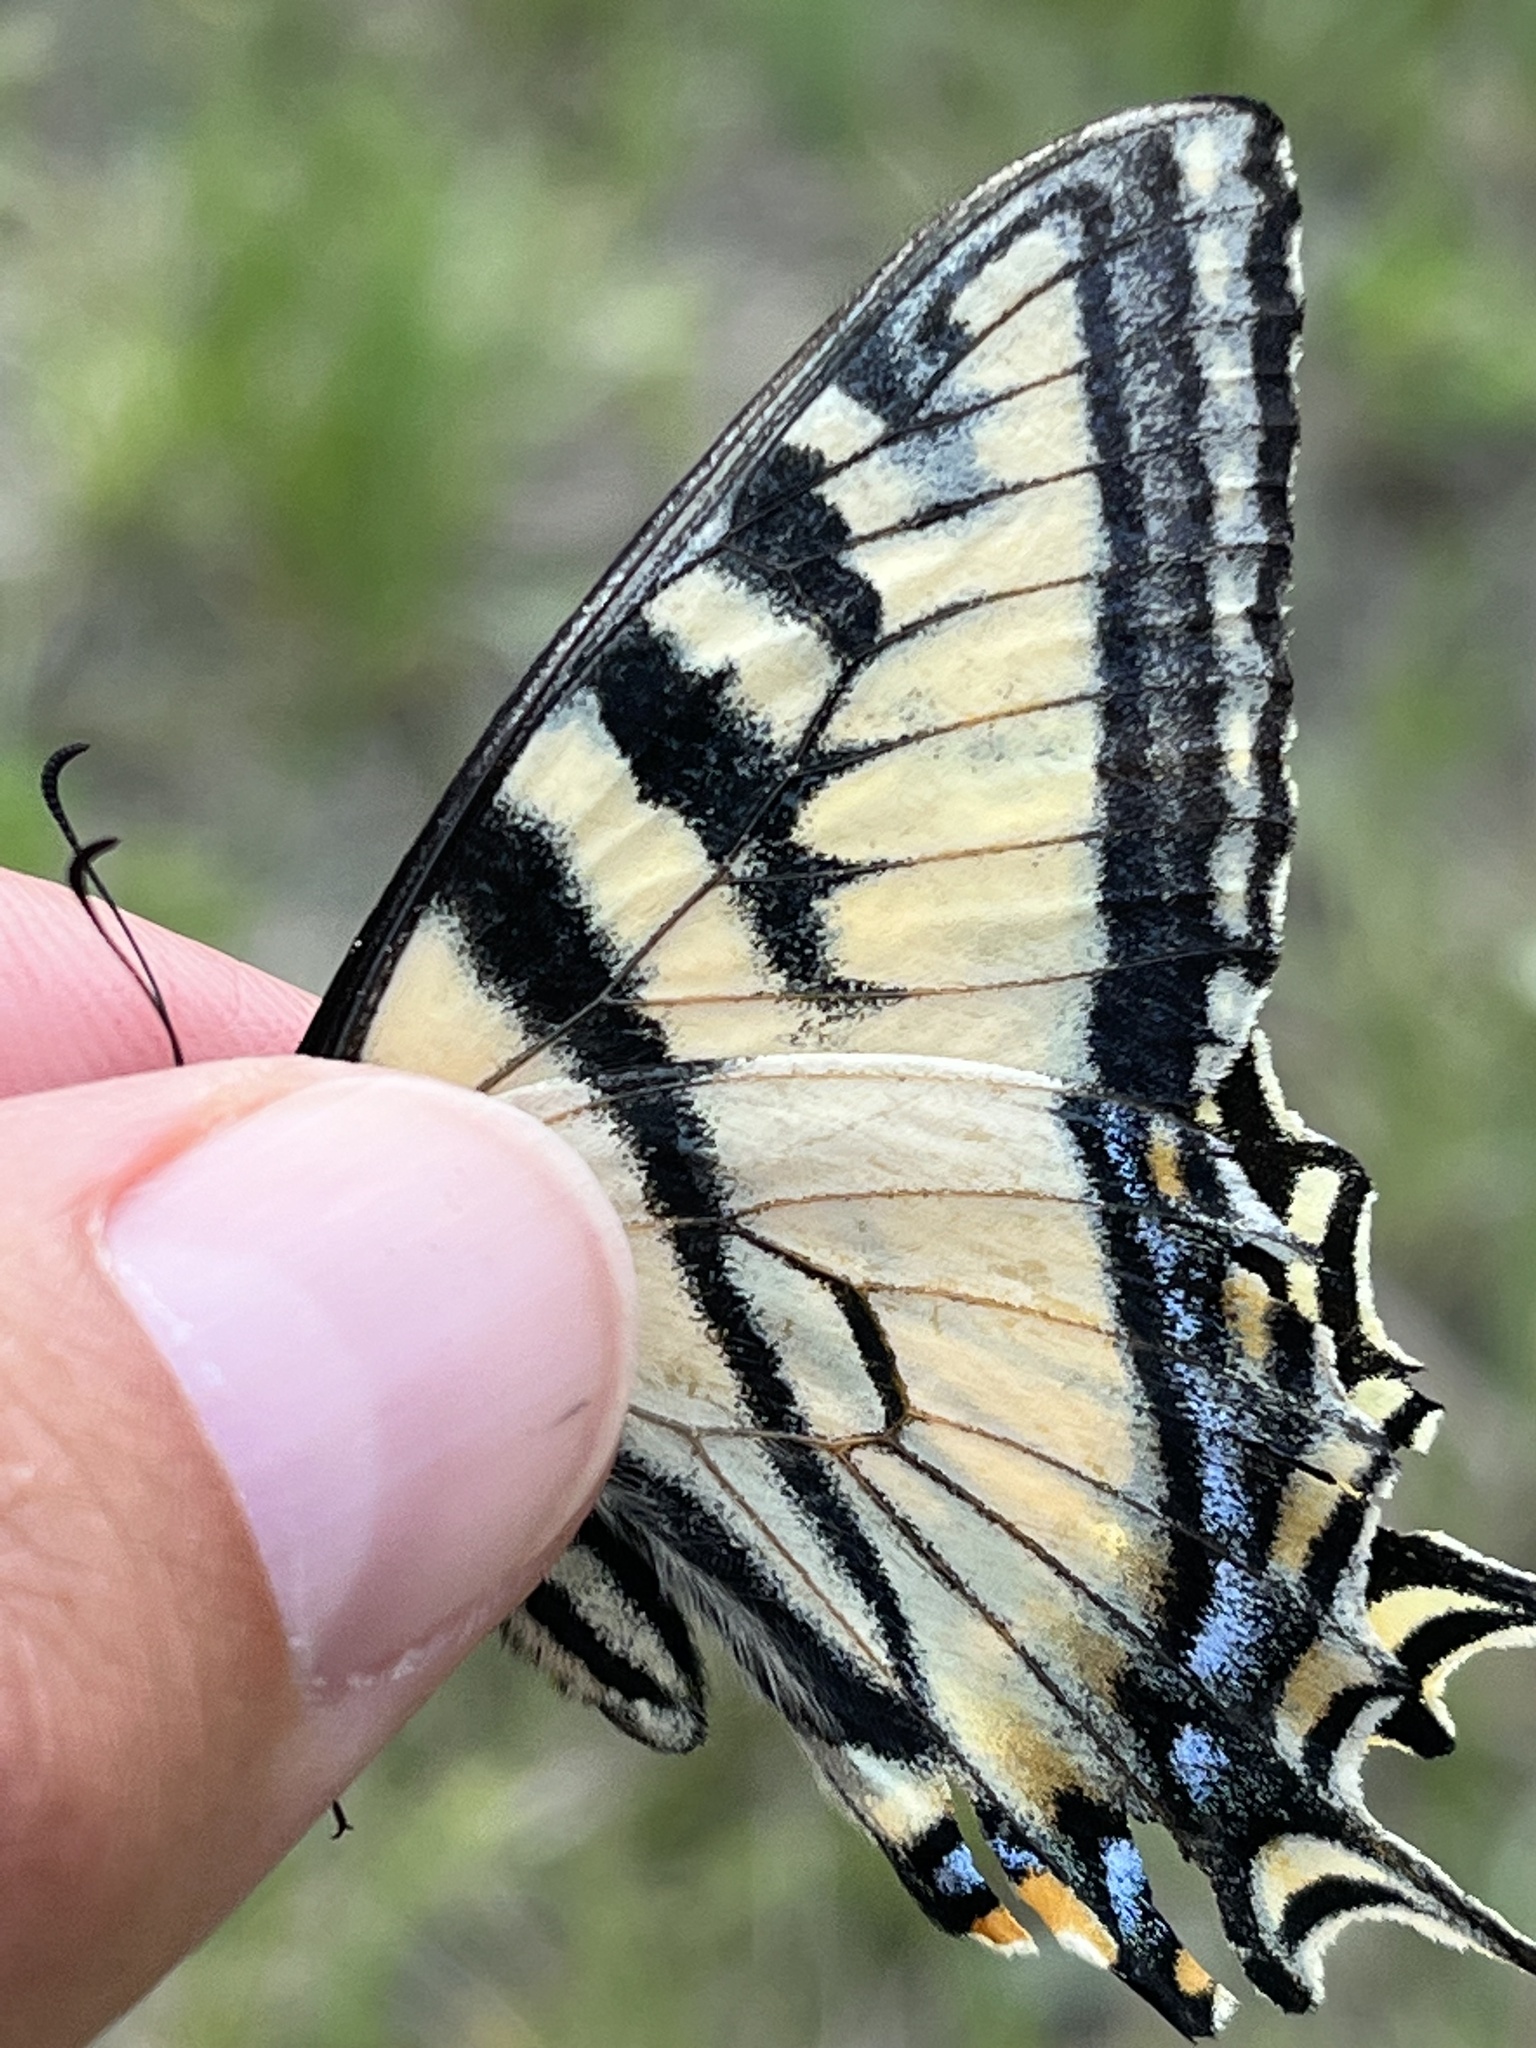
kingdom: Animalia
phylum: Arthropoda
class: Insecta
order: Lepidoptera
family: Papilionidae
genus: Papilio
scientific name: Papilio canadensis
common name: Canadian tiger swallowtail
